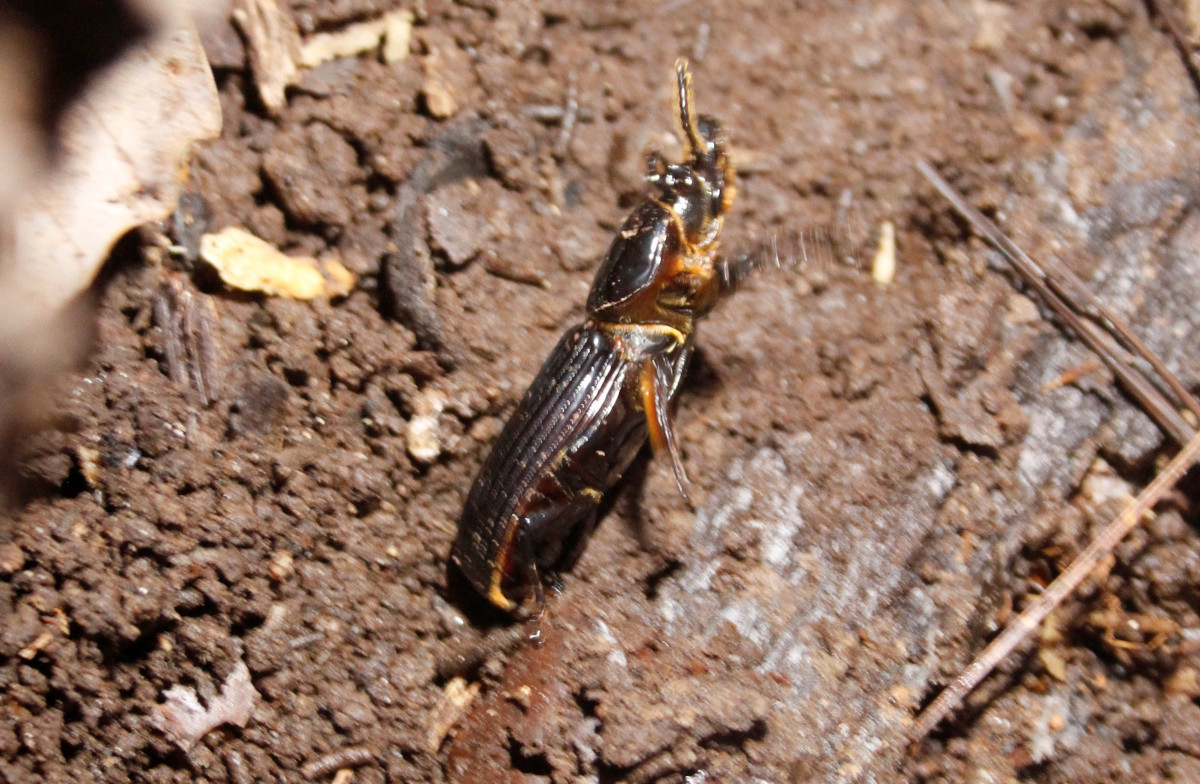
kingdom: Animalia
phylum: Arthropoda
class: Insecta
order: Coleoptera
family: Passalidae
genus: Odontotaenius
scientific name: Odontotaenius disjunctus
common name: Patent leather beetle
